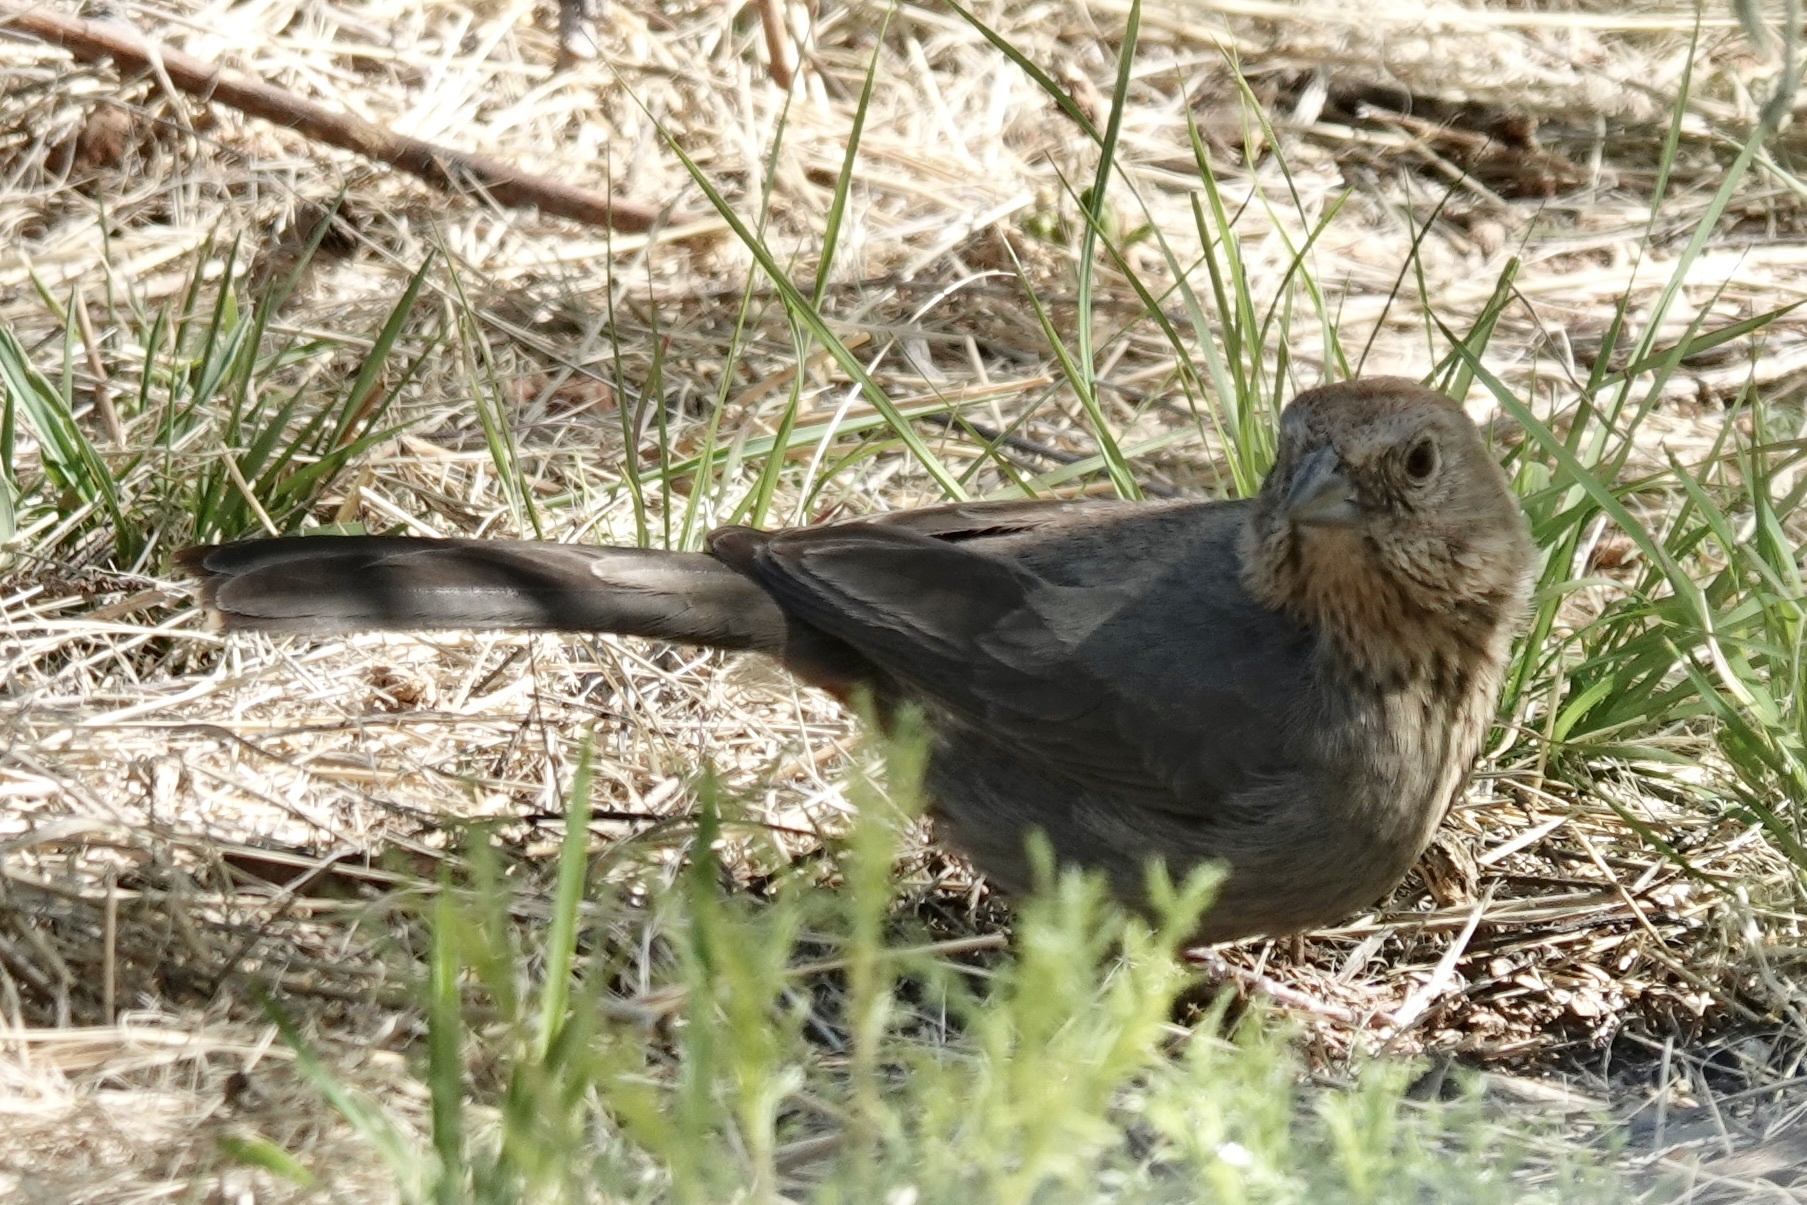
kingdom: Animalia
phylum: Chordata
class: Aves
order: Passeriformes
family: Passerellidae
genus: Melozone
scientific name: Melozone fusca
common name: Canyon towhee
